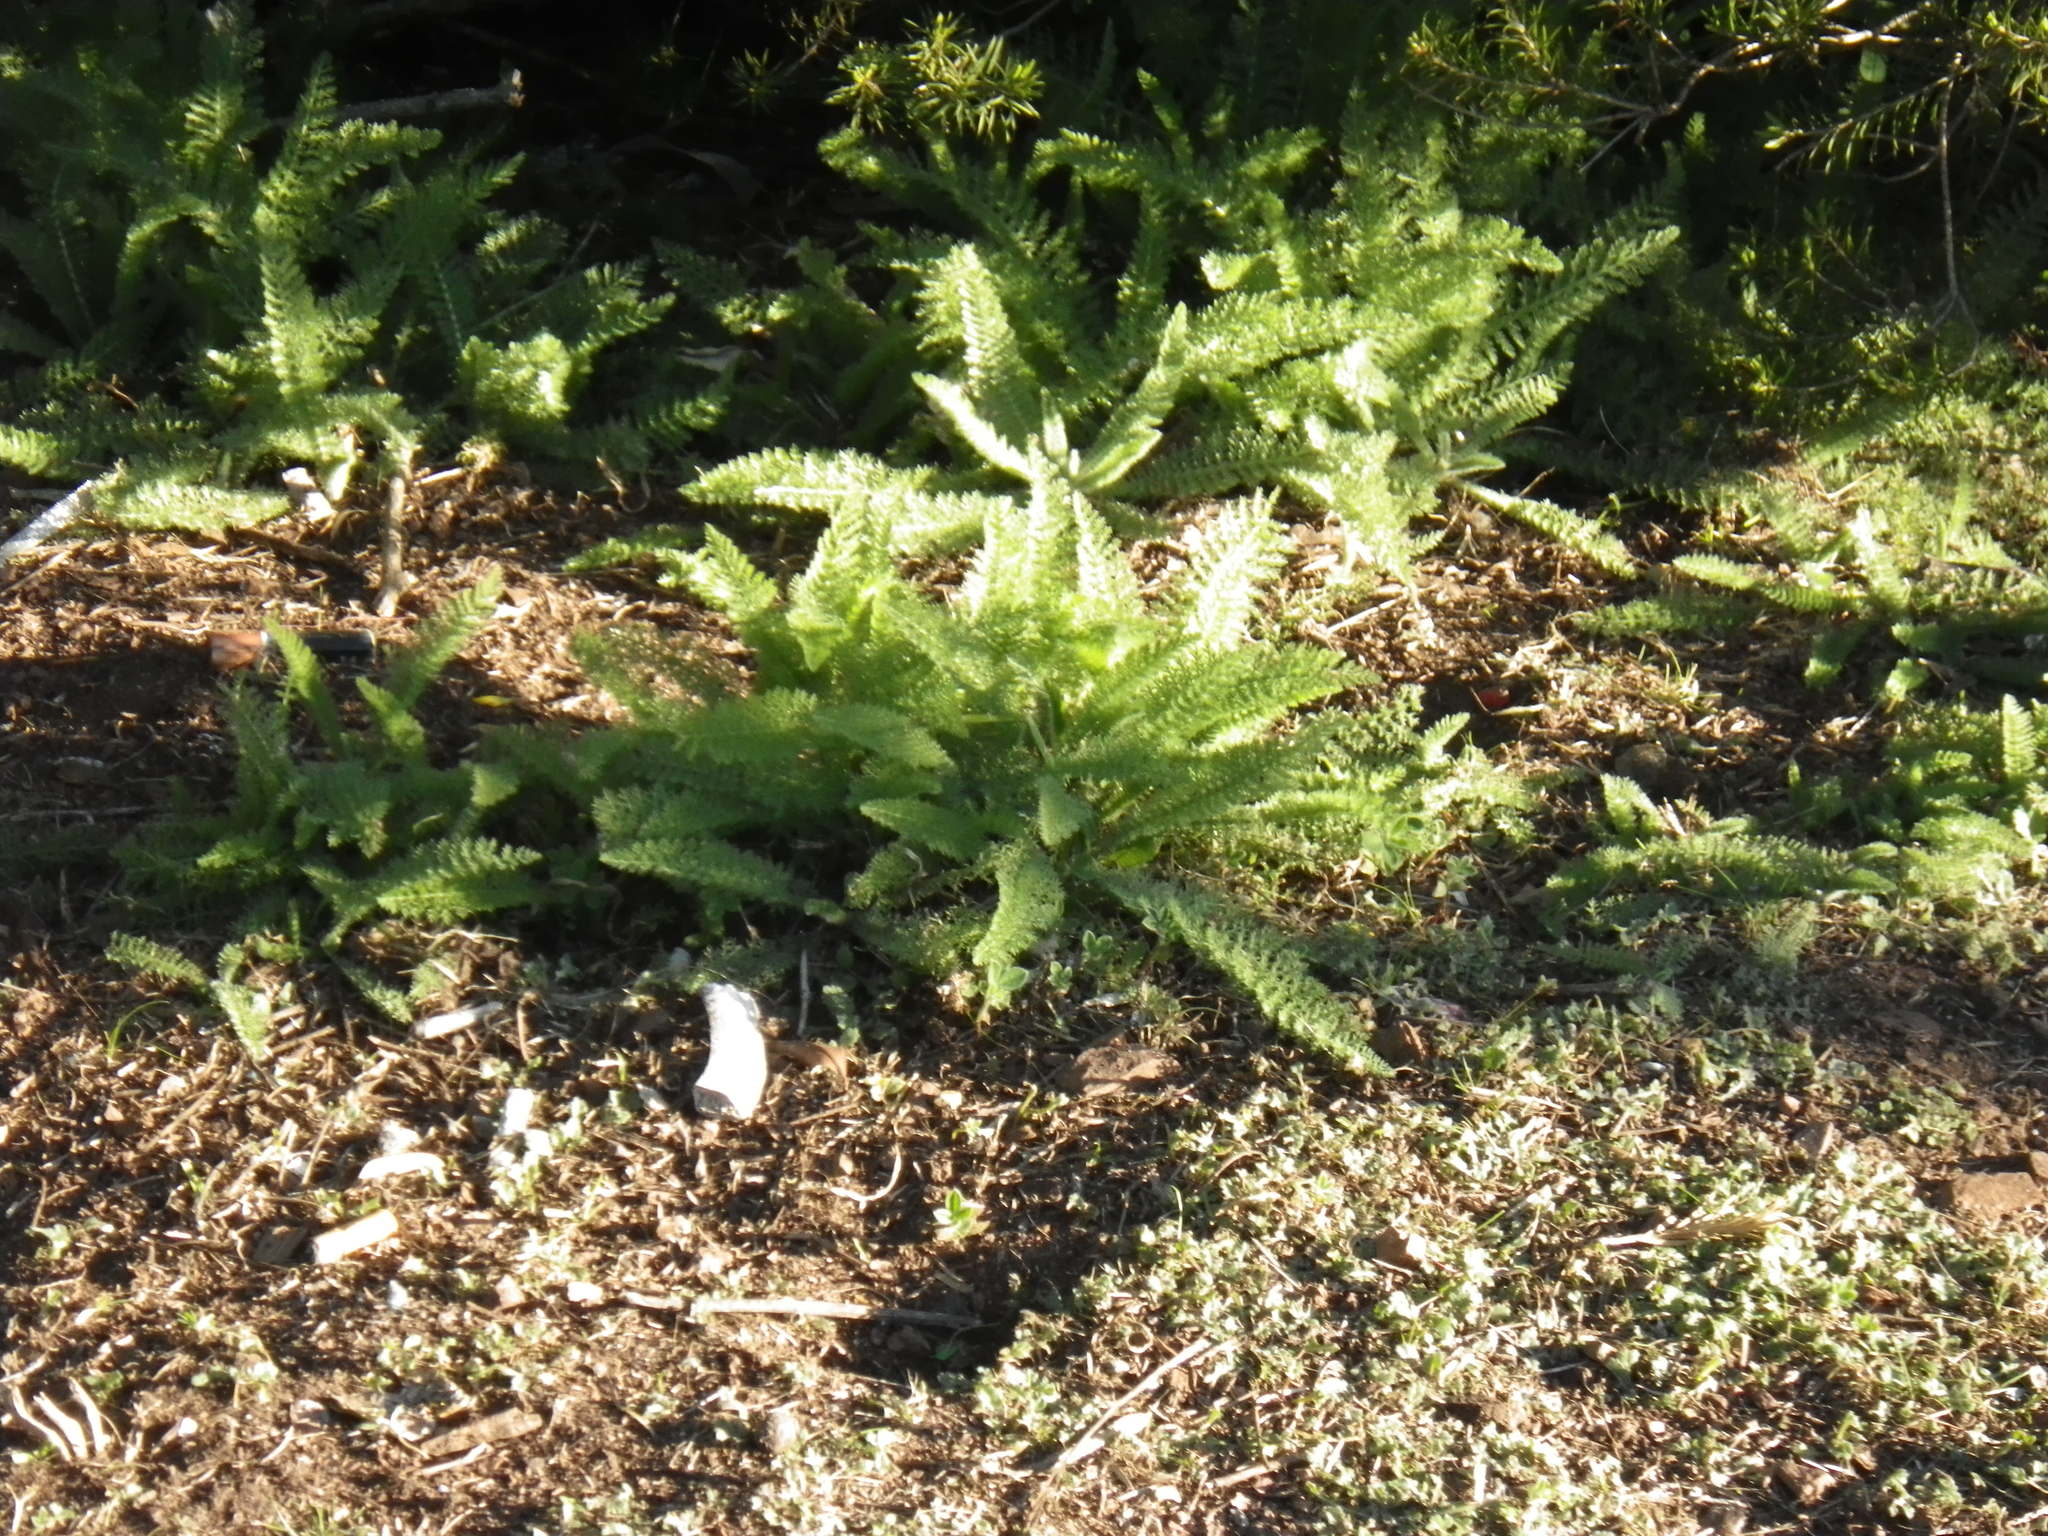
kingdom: Plantae
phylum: Tracheophyta
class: Magnoliopsida
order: Asterales
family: Asteraceae
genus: Achillea
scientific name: Achillea millefolium
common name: Yarrow
